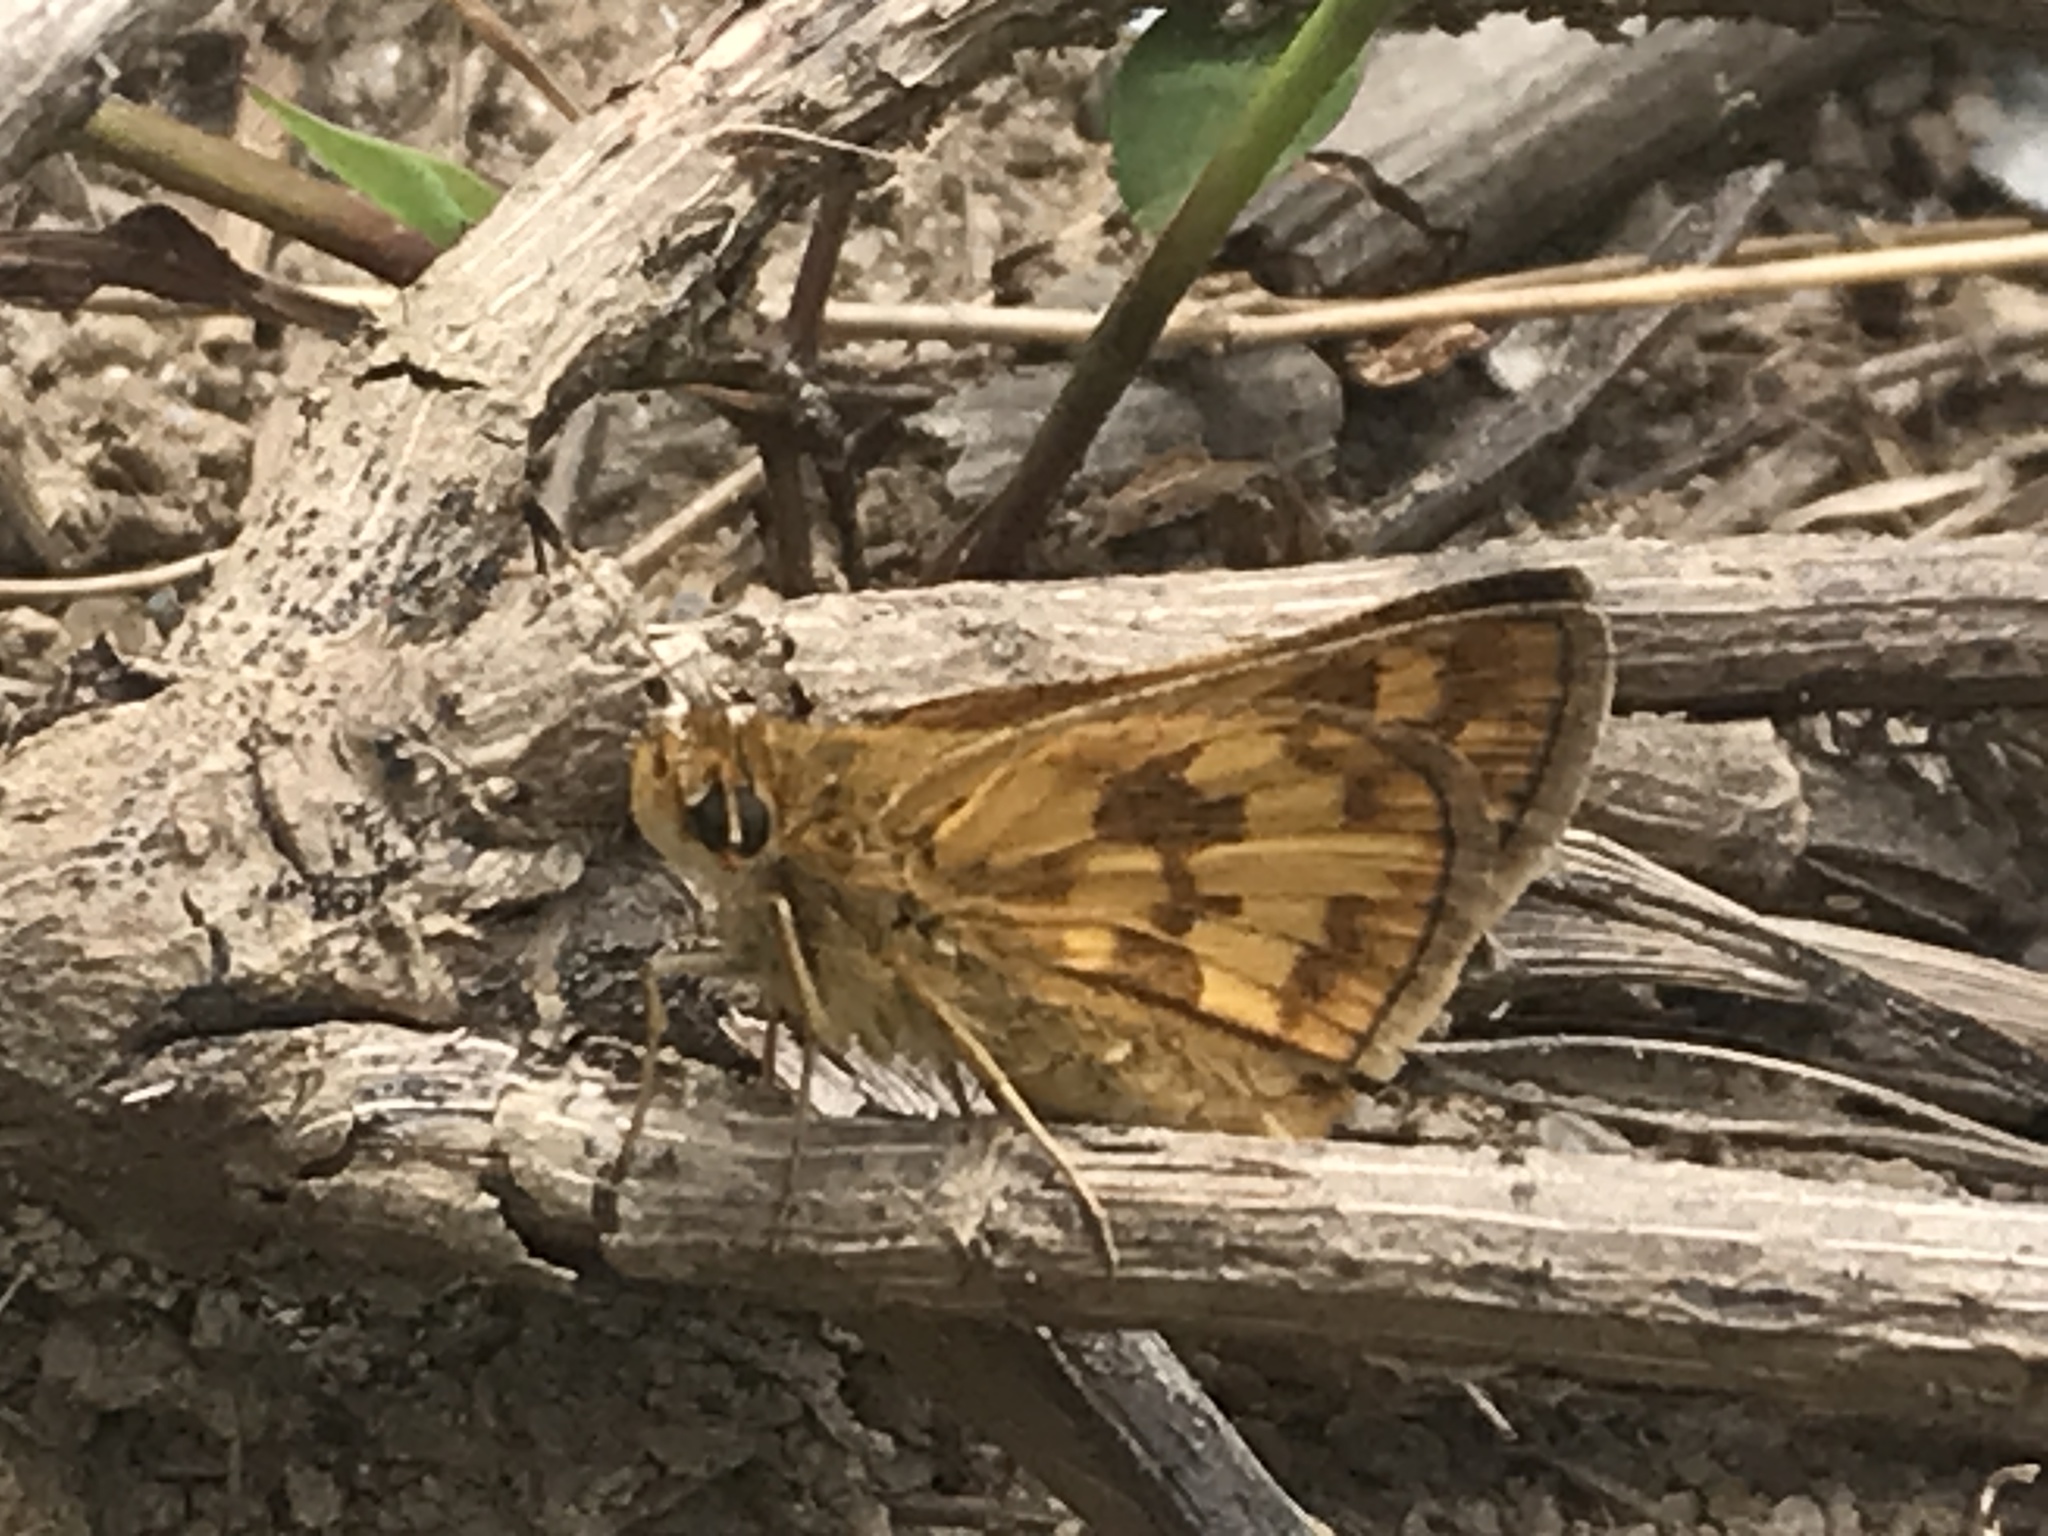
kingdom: Animalia
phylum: Arthropoda
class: Insecta
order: Lepidoptera
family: Hesperiidae
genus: Polites
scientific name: Polites coras
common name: Peck's skipper
